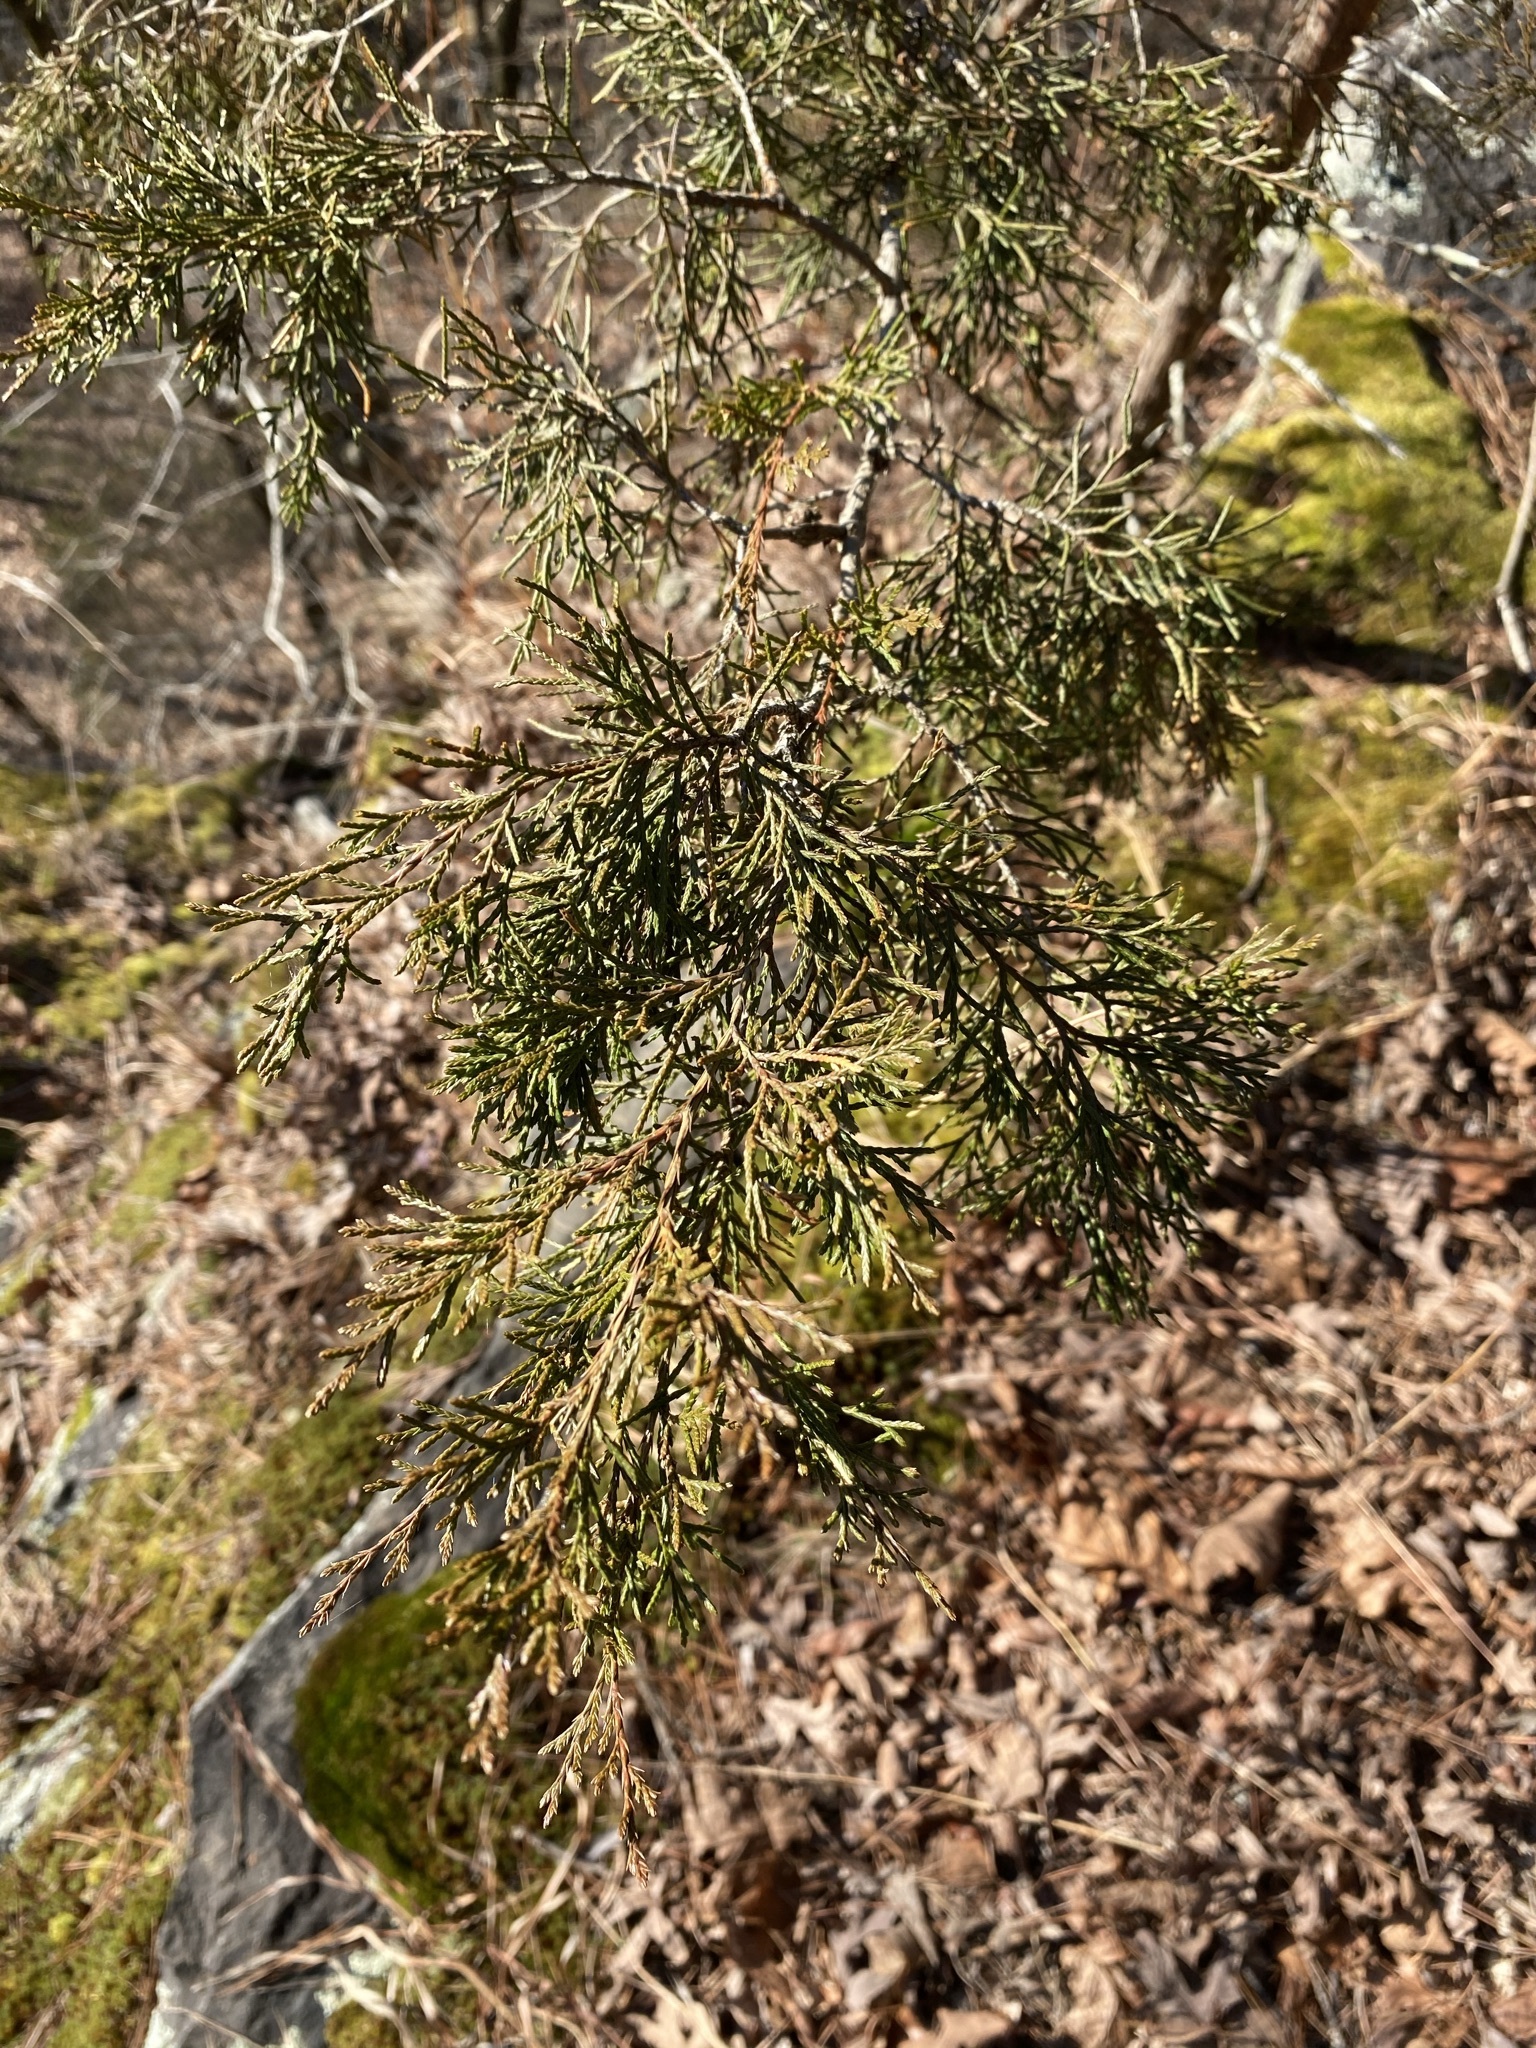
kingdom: Plantae
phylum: Tracheophyta
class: Pinopsida
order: Pinales
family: Cupressaceae
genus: Juniperus
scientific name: Juniperus virginiana
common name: Red juniper
